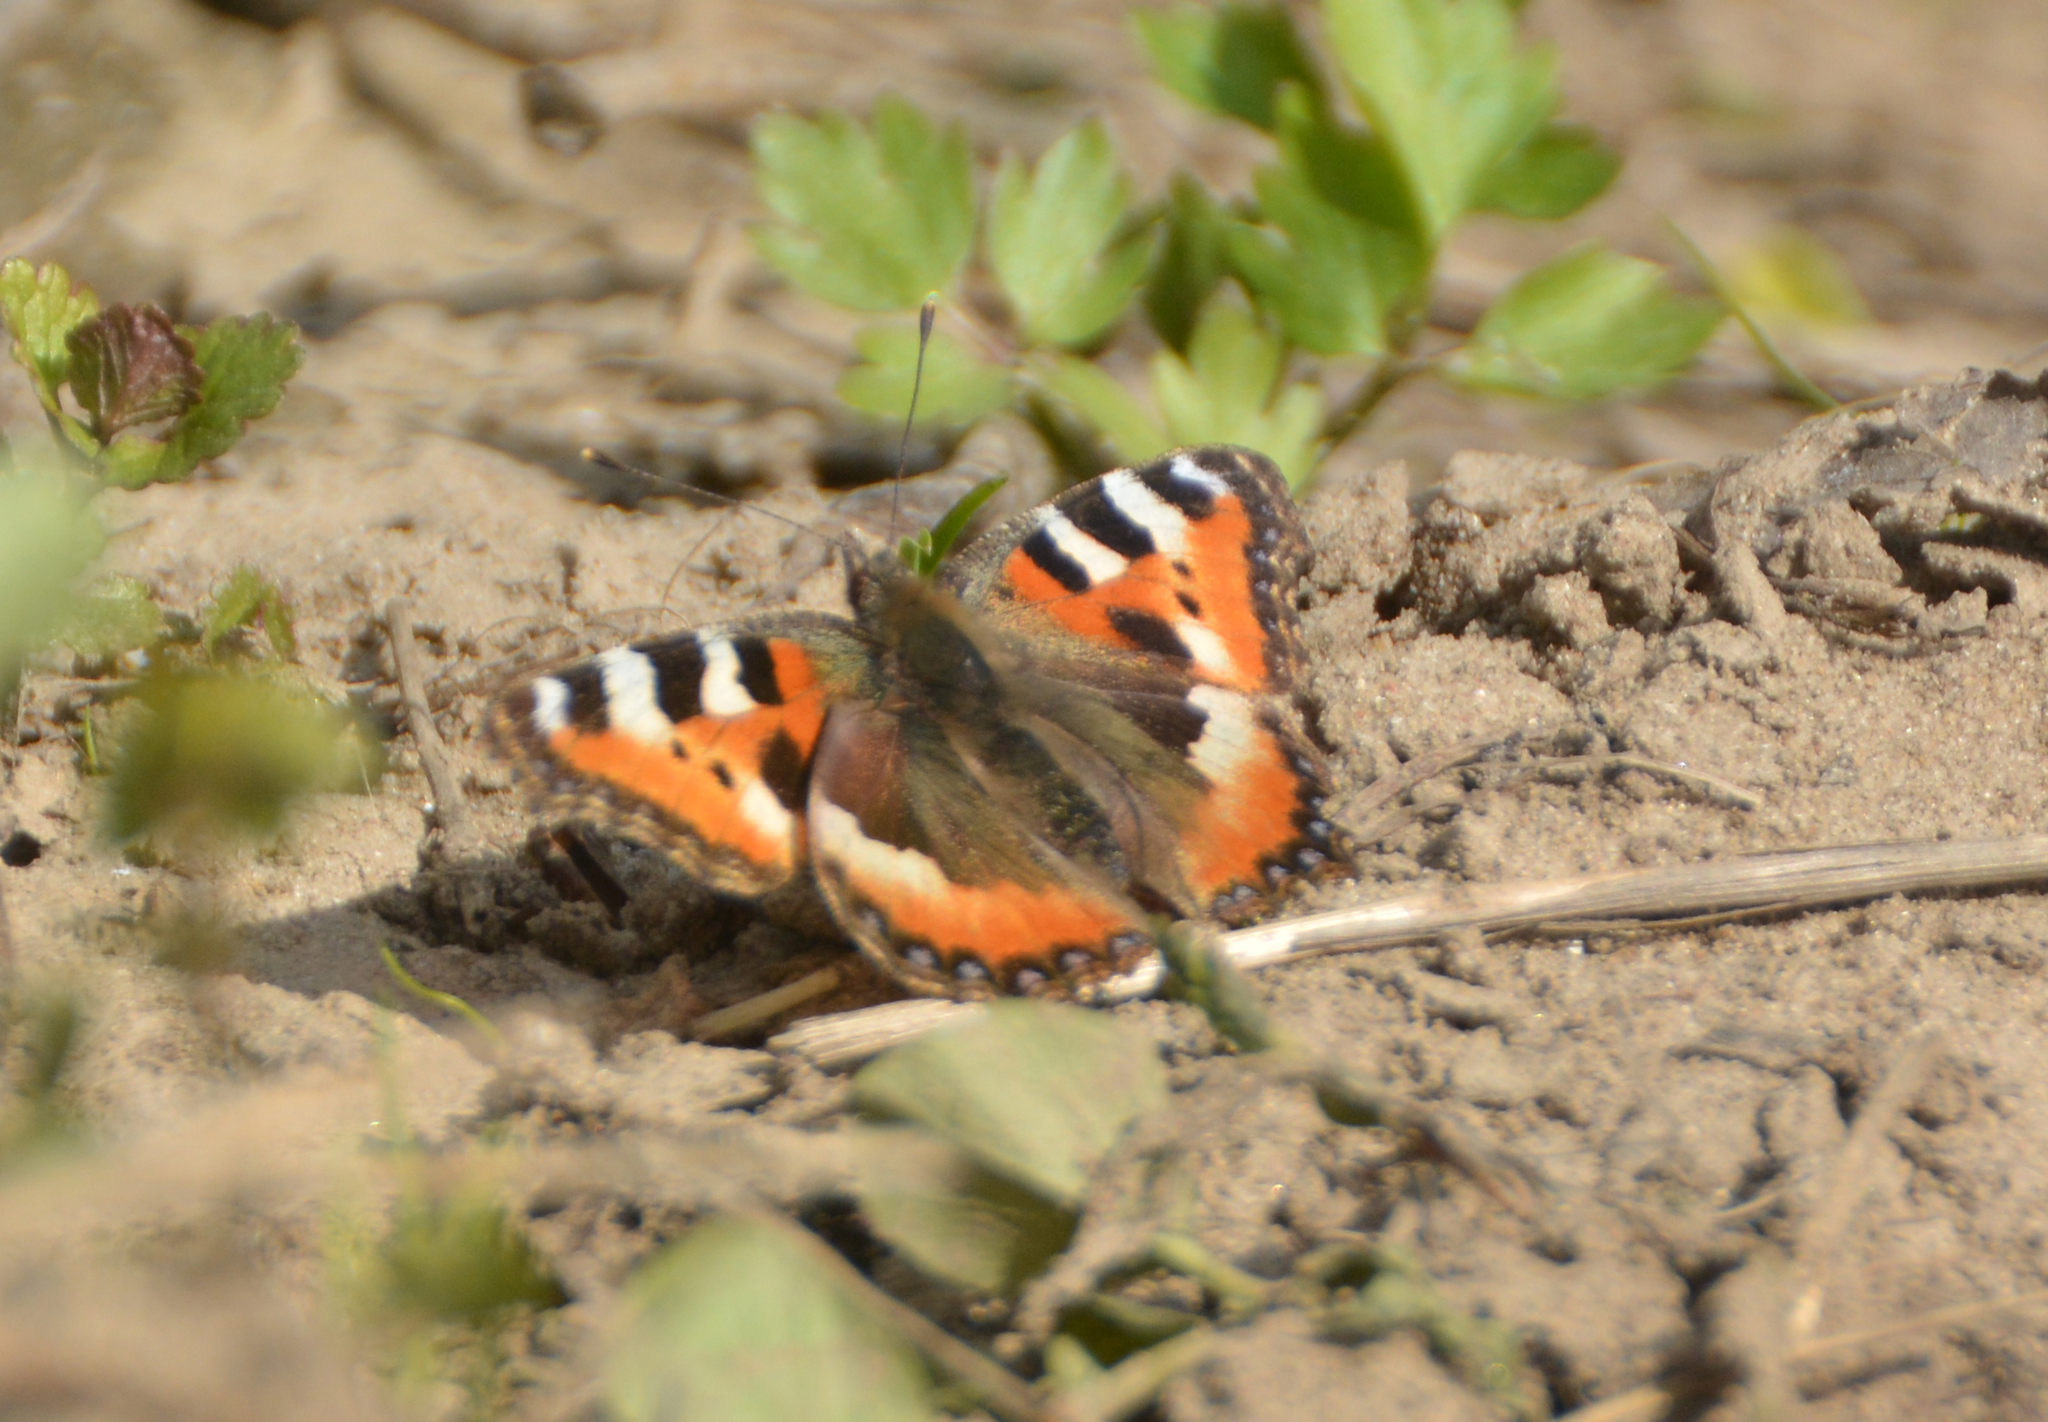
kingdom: Animalia
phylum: Arthropoda
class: Insecta
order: Lepidoptera
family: Nymphalidae
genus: Aglais
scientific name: Aglais urticae
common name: Small tortoiseshell
